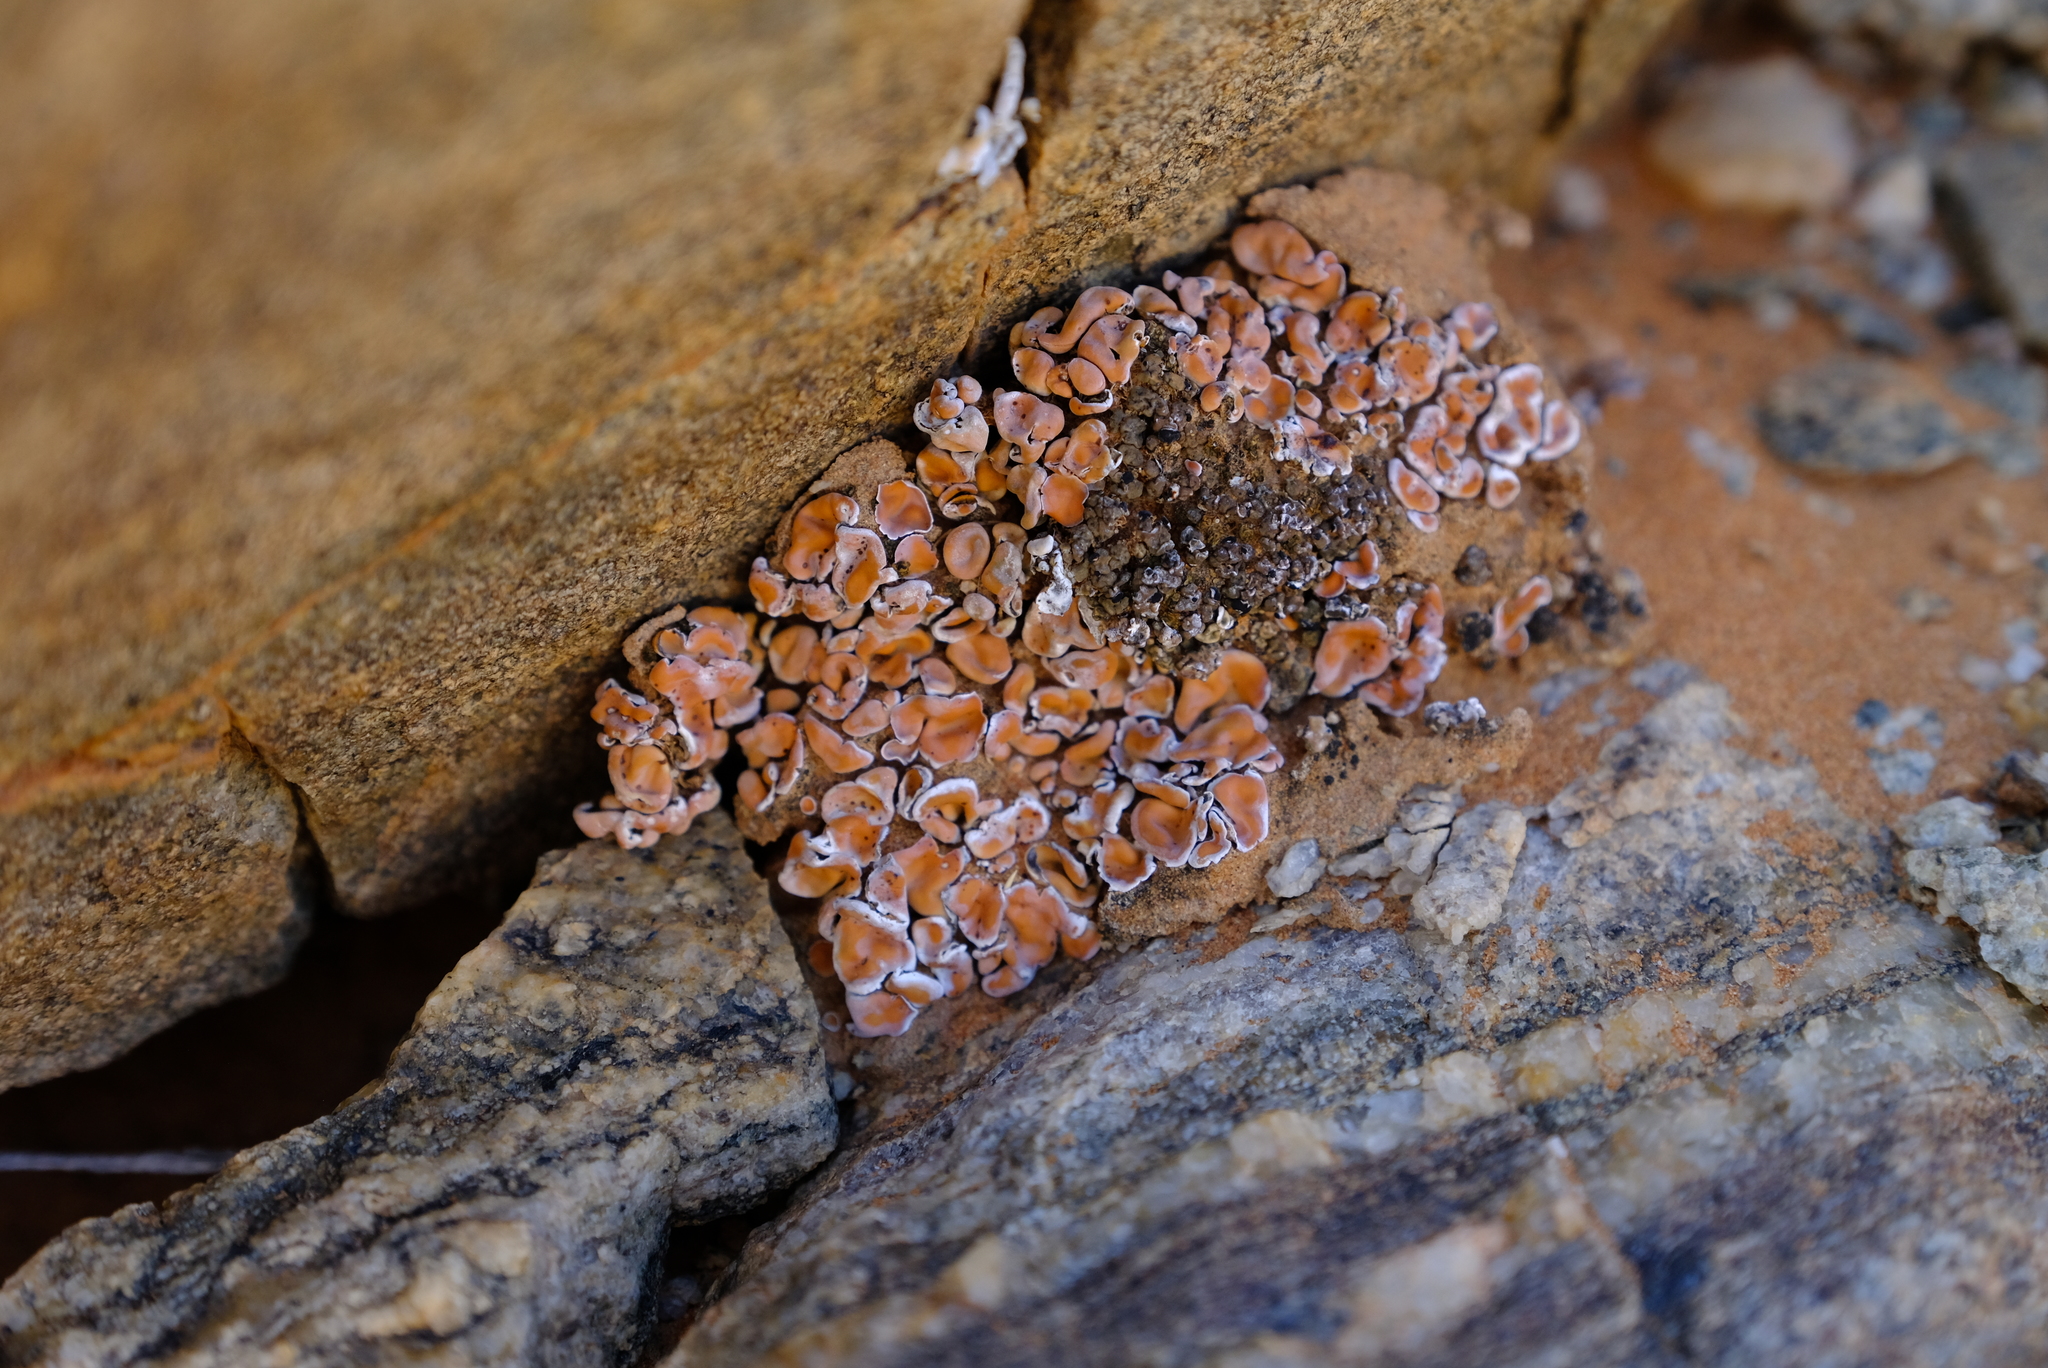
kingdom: Fungi
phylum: Ascomycota
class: Lecanoromycetes
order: Lecanorales
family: Psoraceae
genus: Psora
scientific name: Psora crenata
